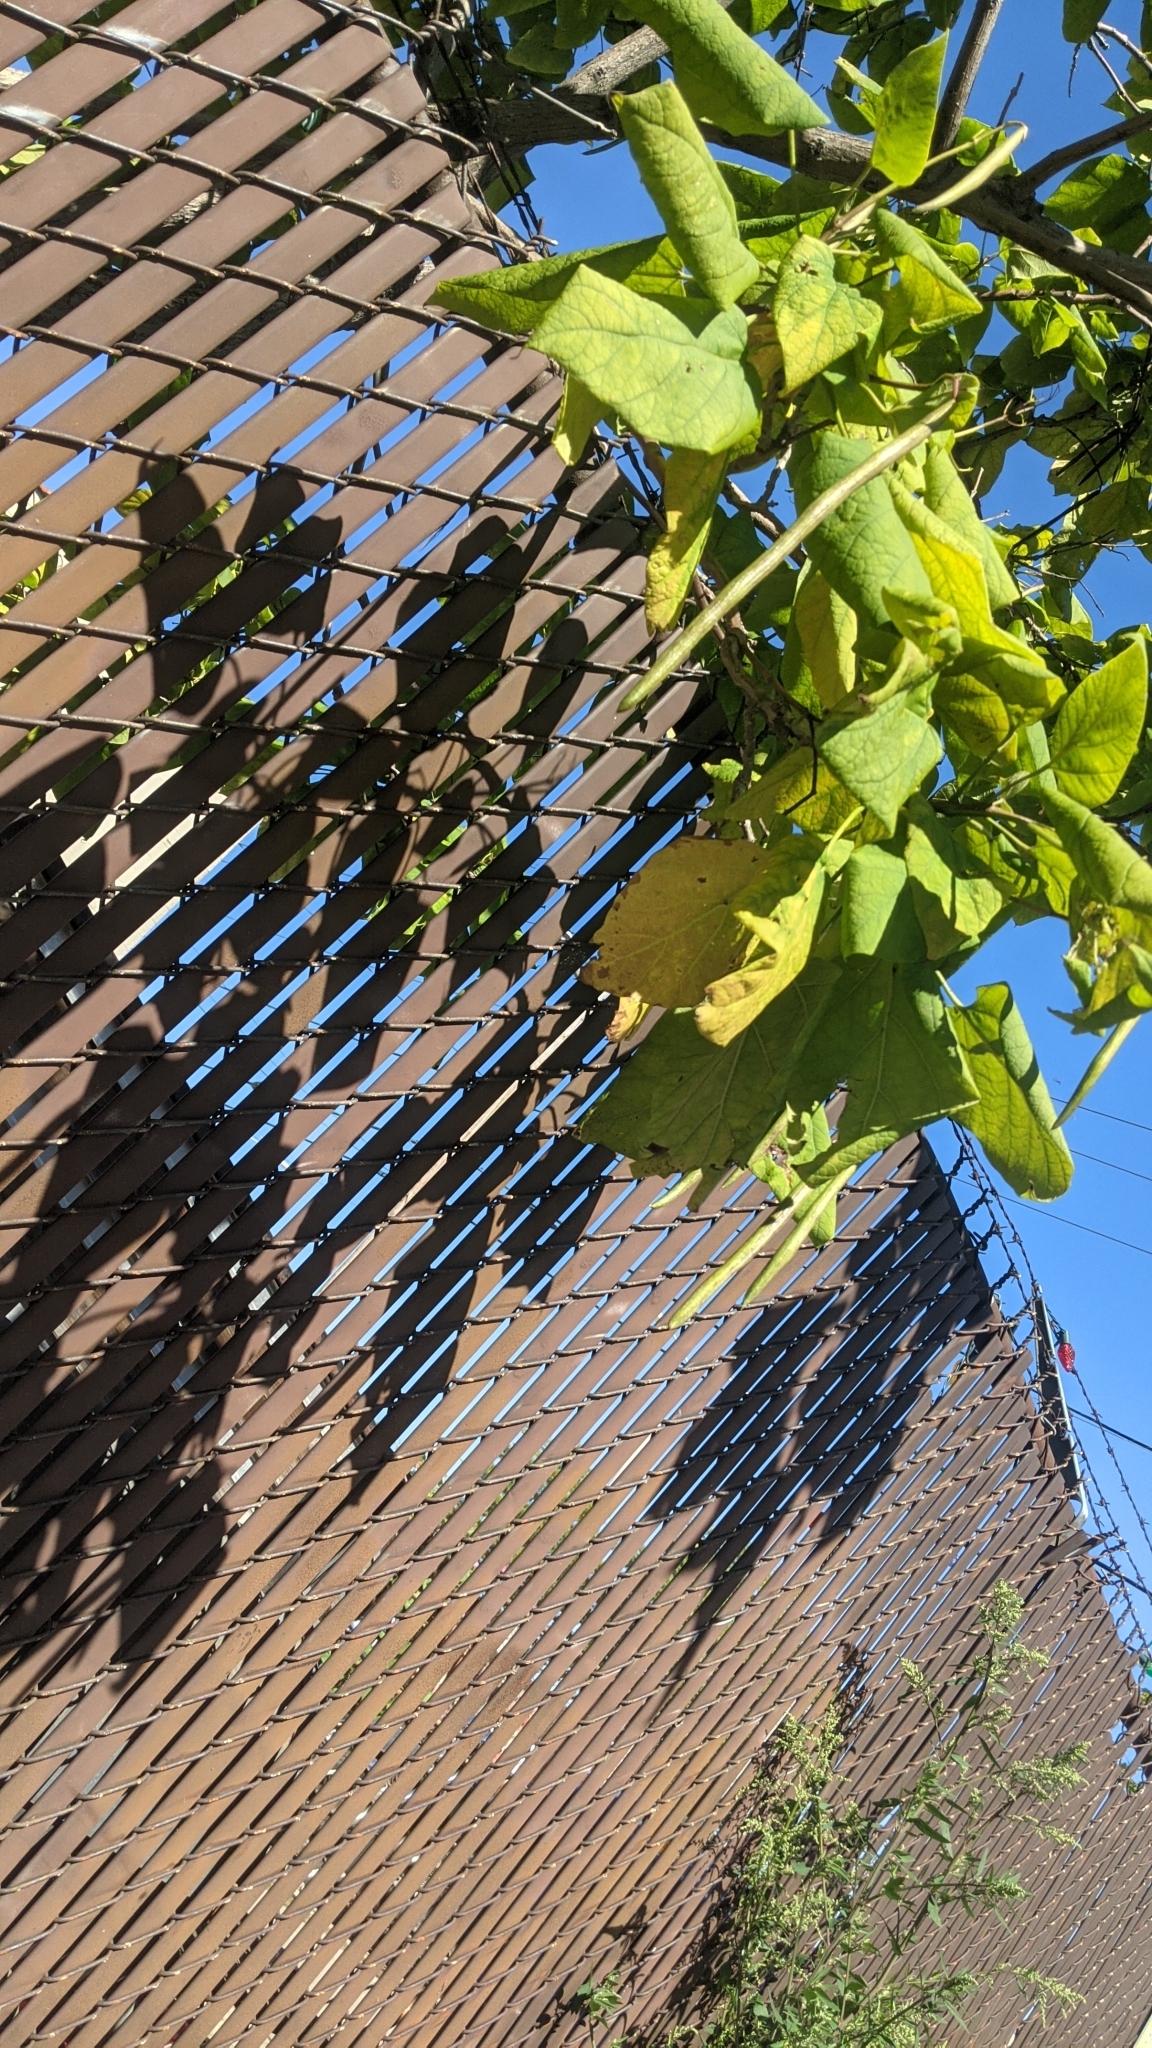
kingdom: Plantae
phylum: Tracheophyta
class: Magnoliopsida
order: Lamiales
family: Bignoniaceae
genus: Catalpa
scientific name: Catalpa speciosa
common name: Northern catalpa
